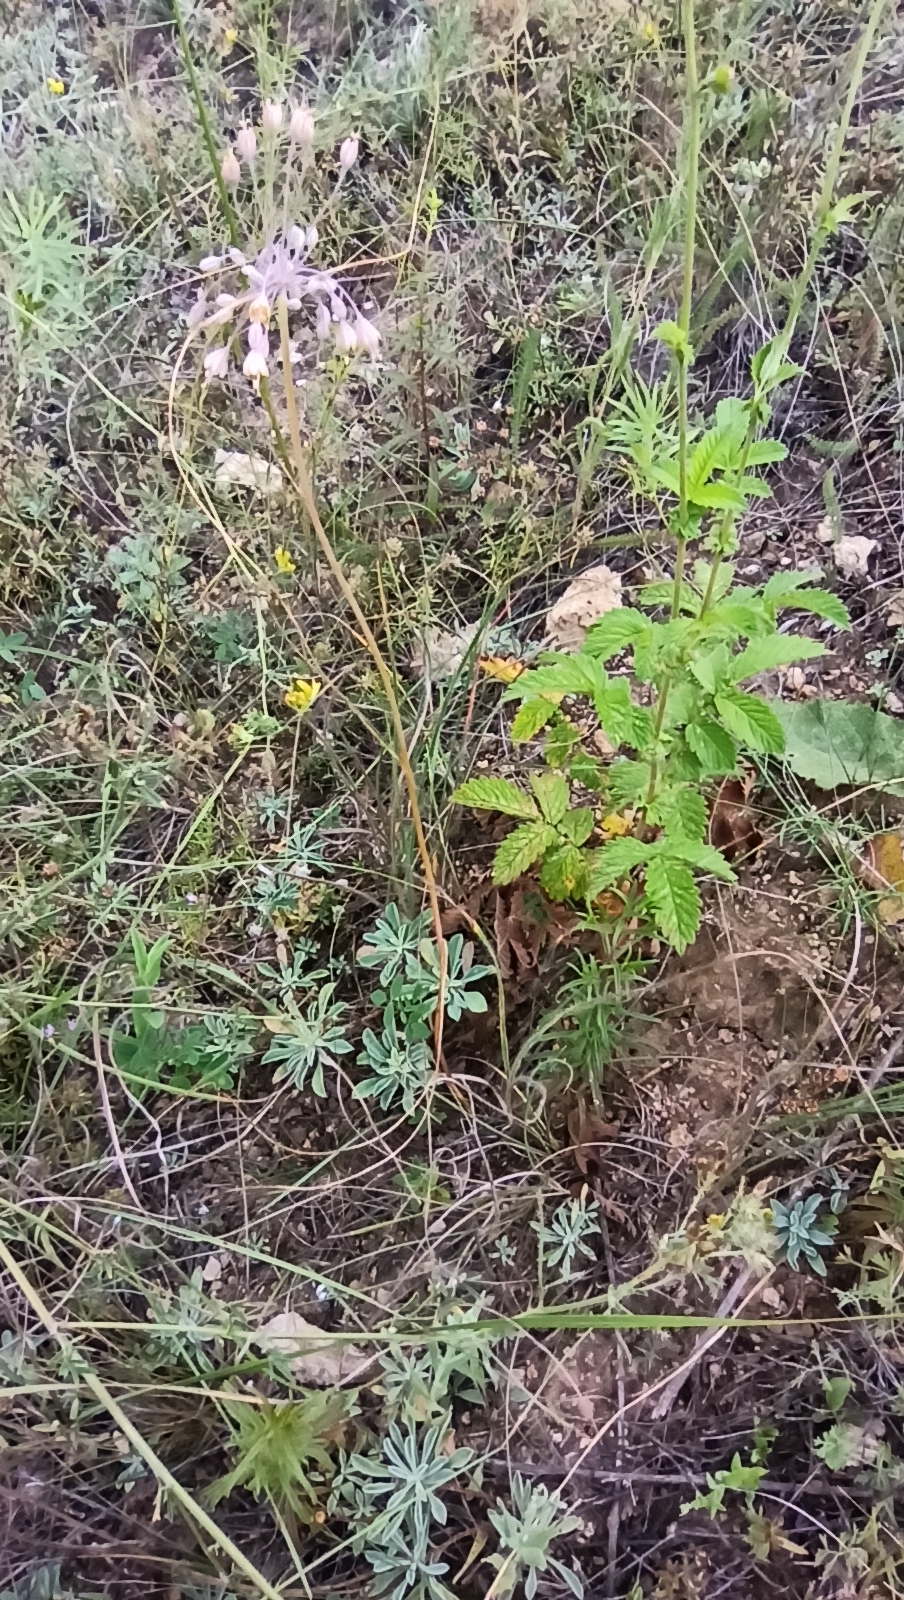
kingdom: Plantae
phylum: Tracheophyta
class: Liliopsida
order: Asparagales
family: Amaryllidaceae
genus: Allium
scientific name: Allium flavum
